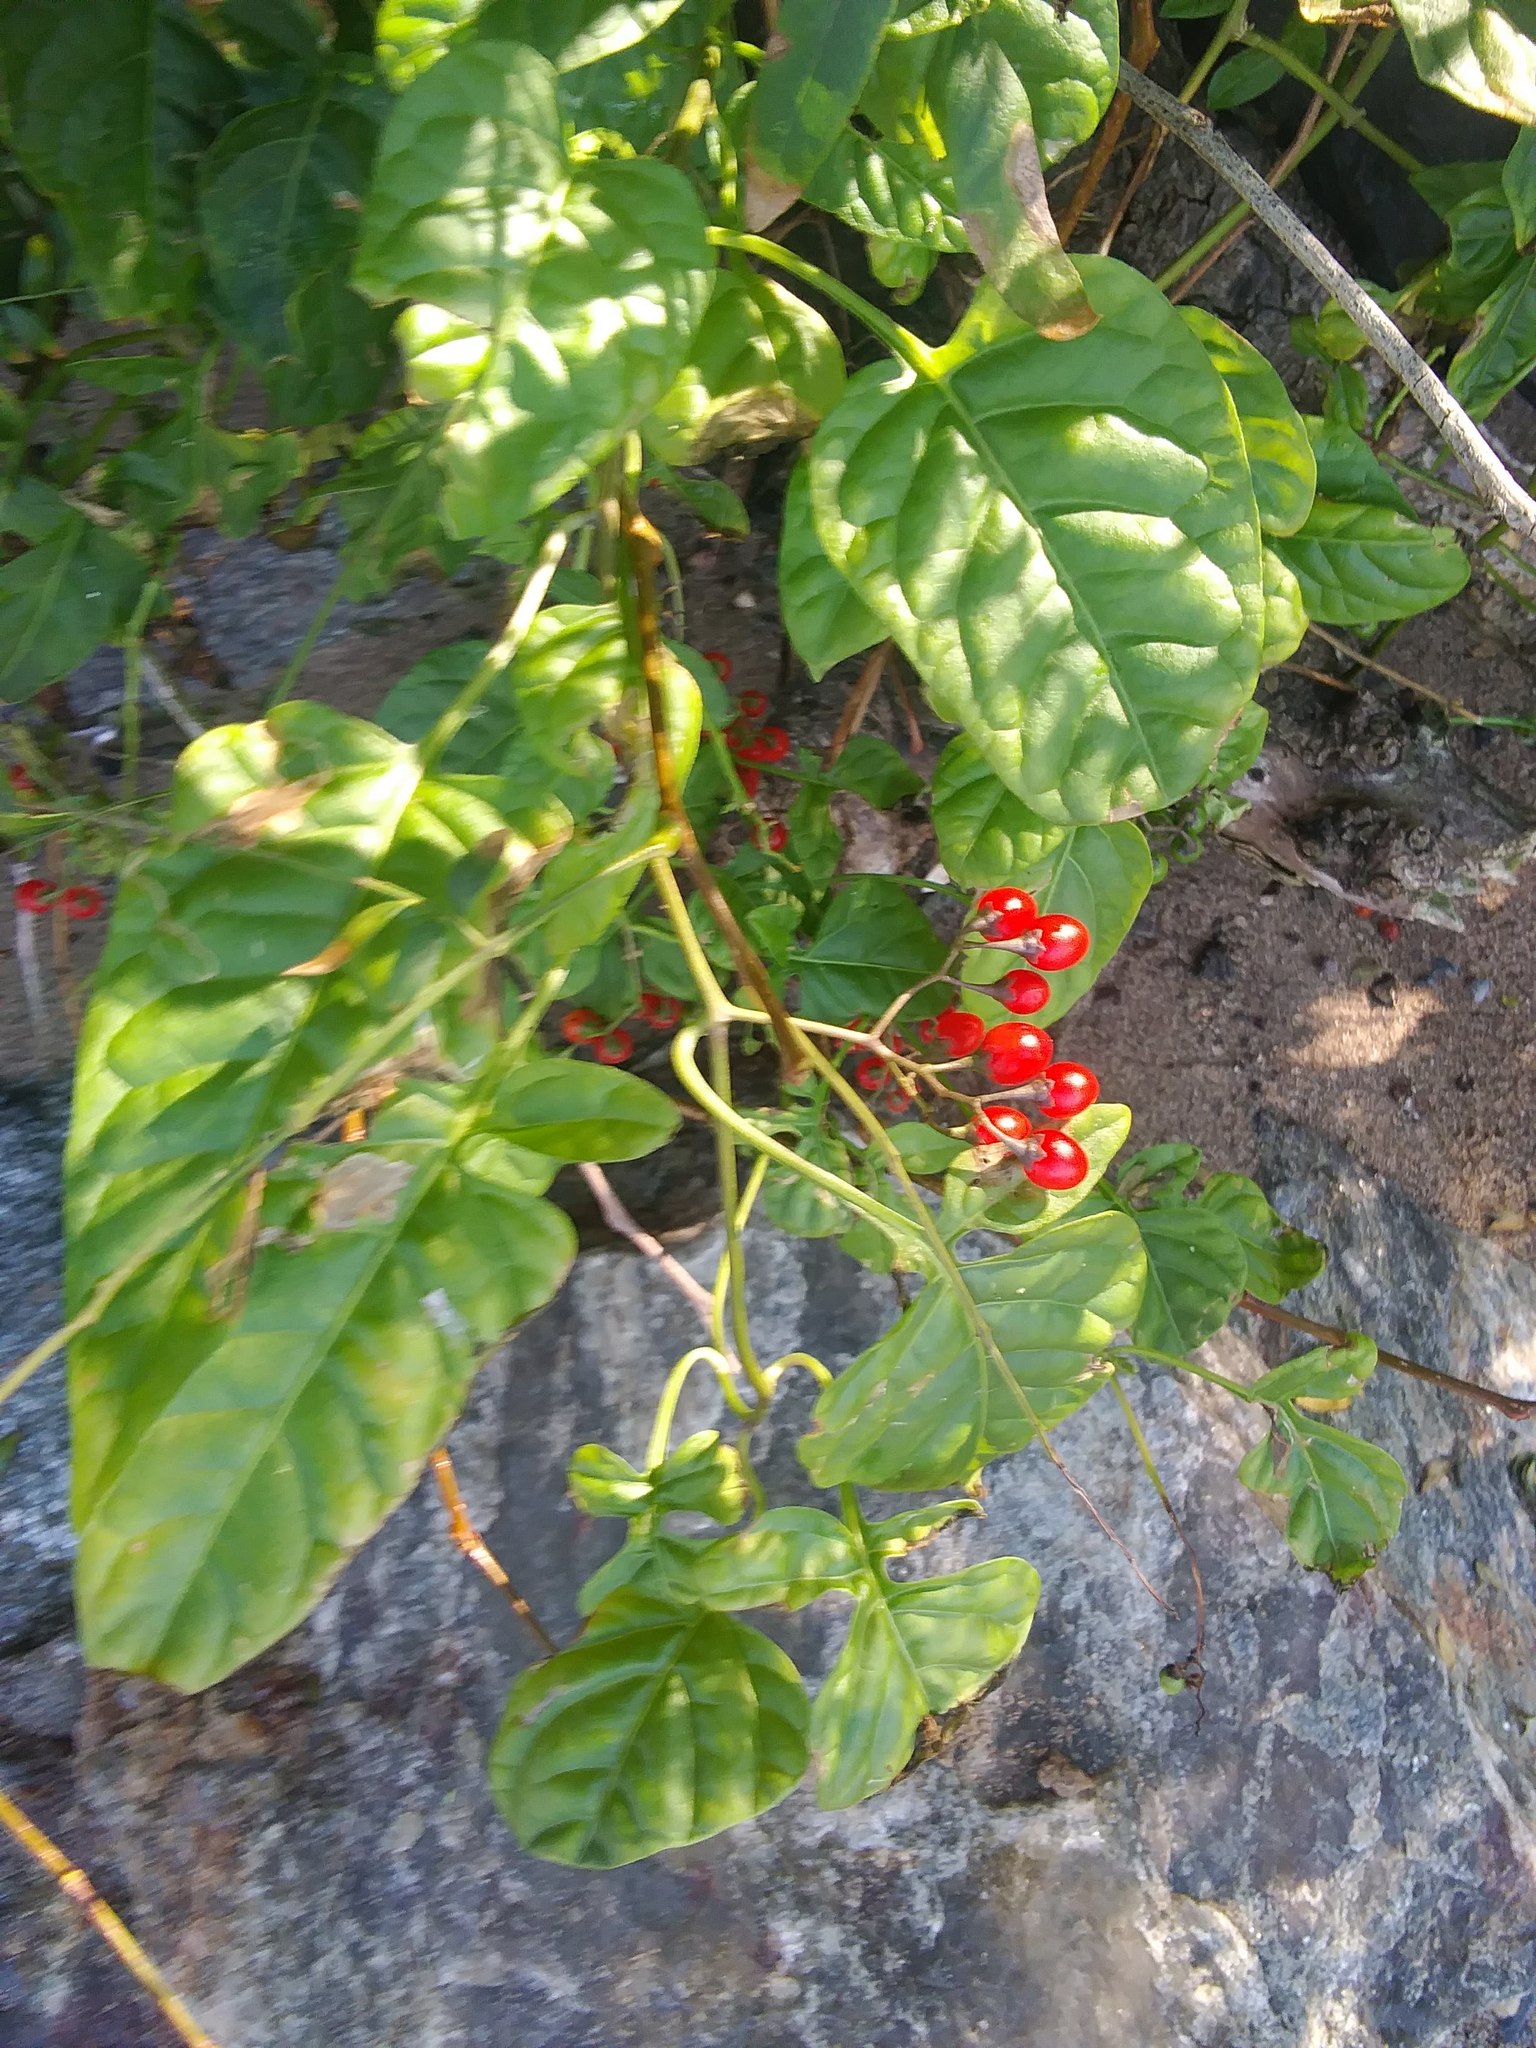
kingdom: Plantae
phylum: Tracheophyta
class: Magnoliopsida
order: Solanales
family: Solanaceae
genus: Solanum
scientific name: Solanum dulcamara
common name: Climbing nightshade
